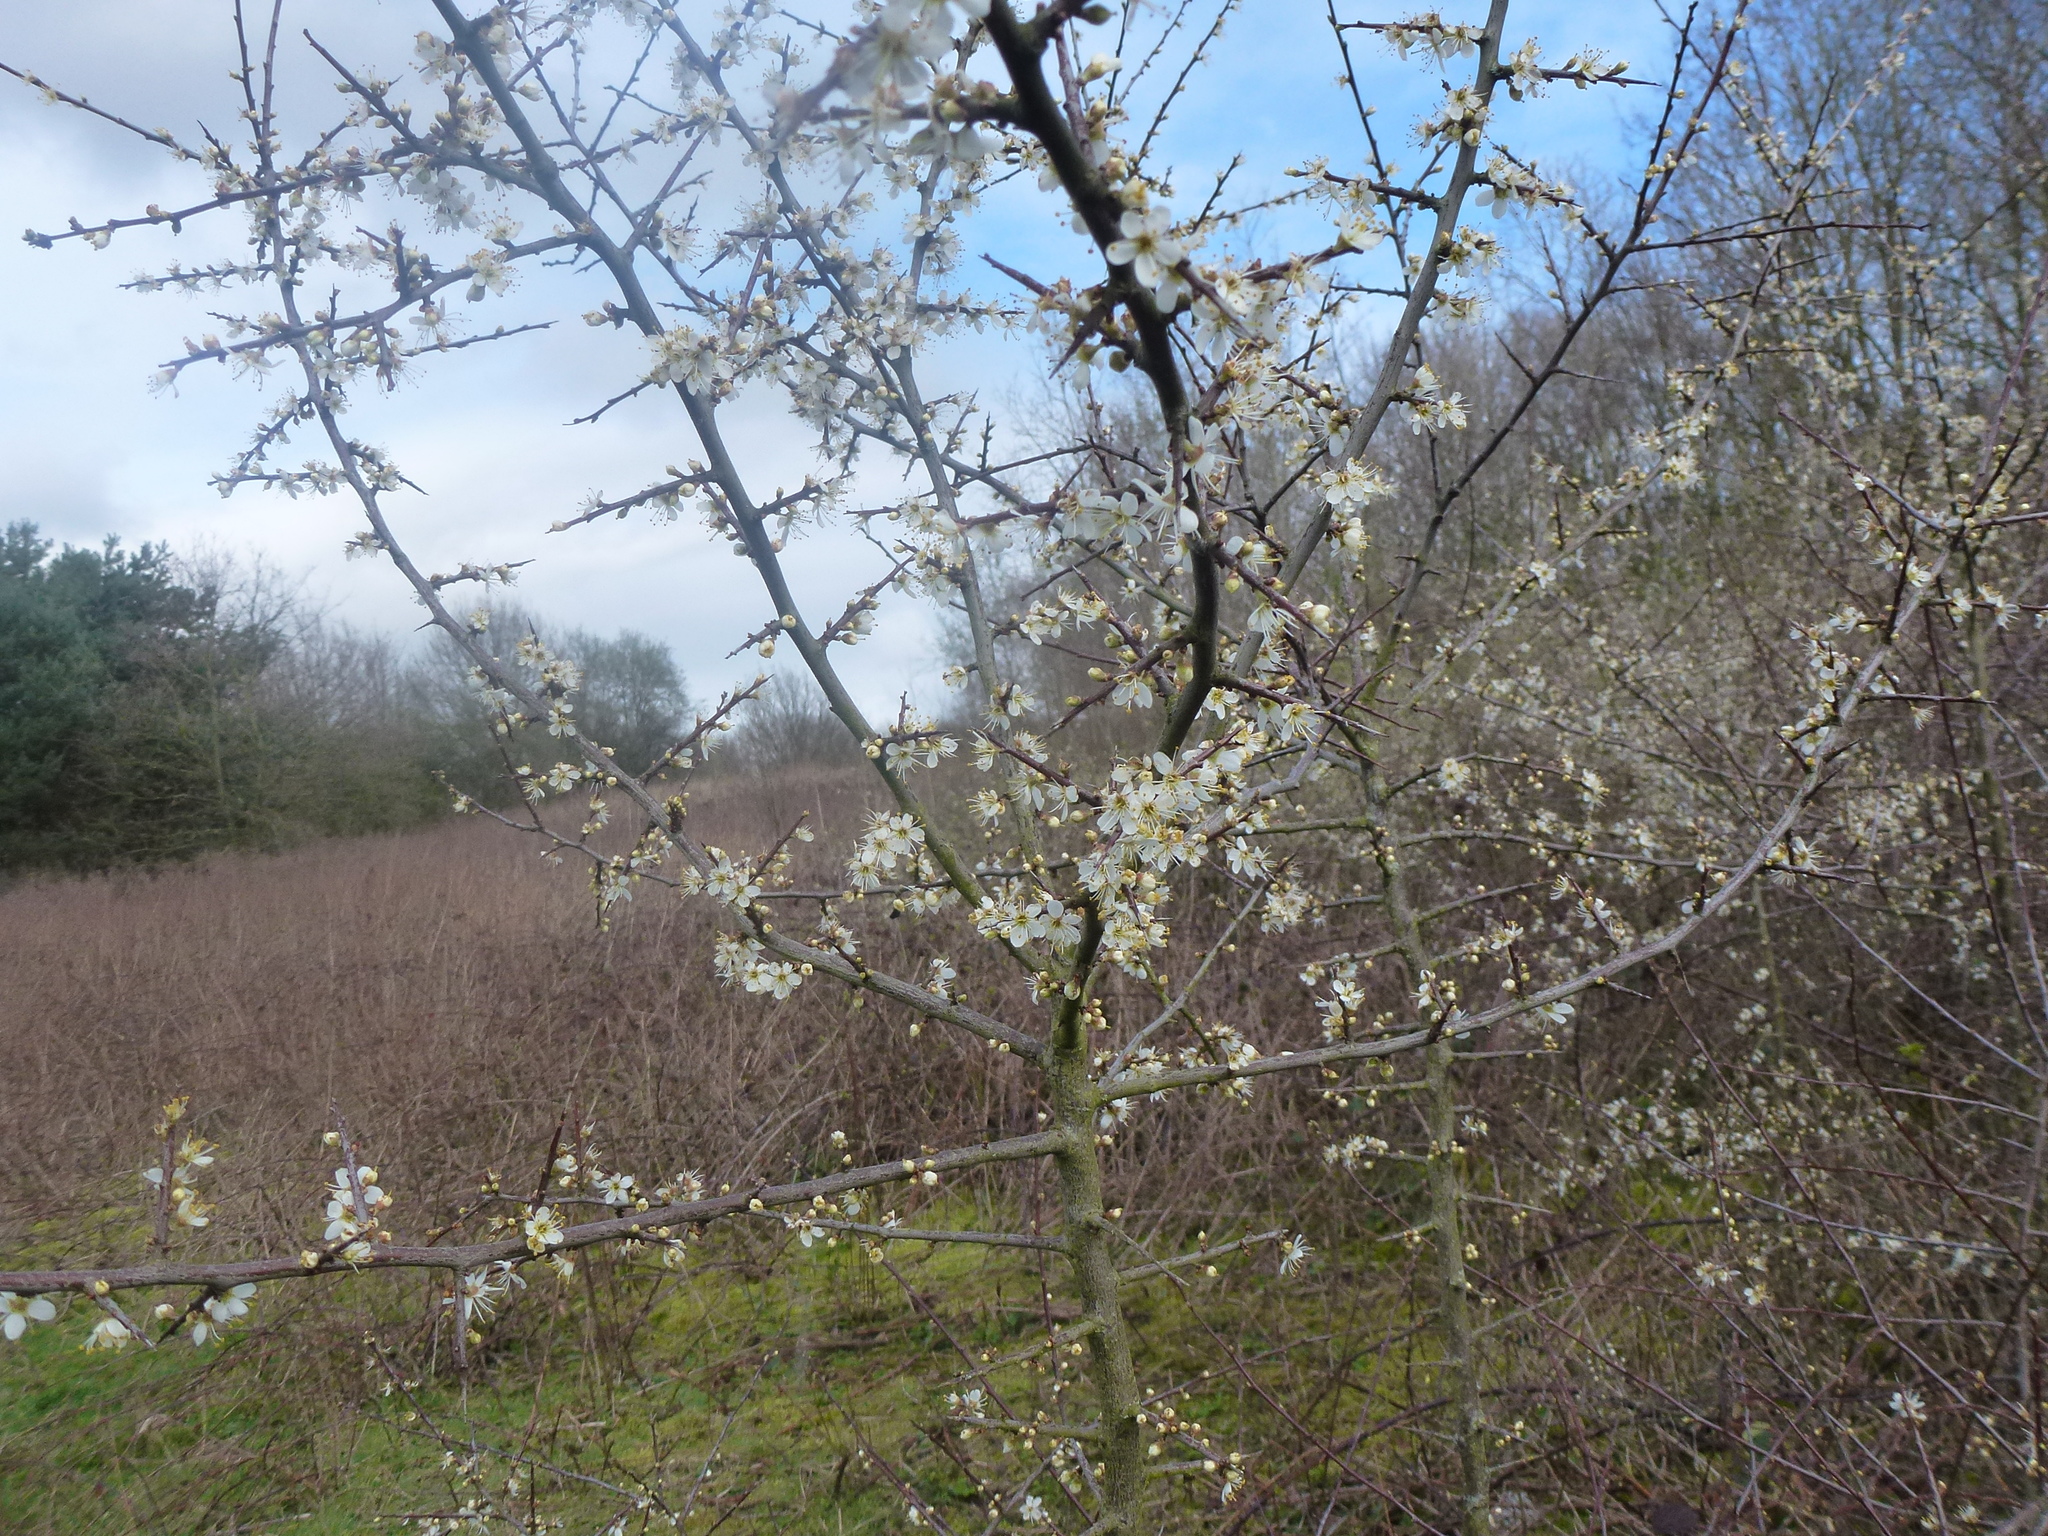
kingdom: Plantae
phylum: Tracheophyta
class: Magnoliopsida
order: Rosales
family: Rosaceae
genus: Prunus
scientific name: Prunus spinosa
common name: Blackthorn
